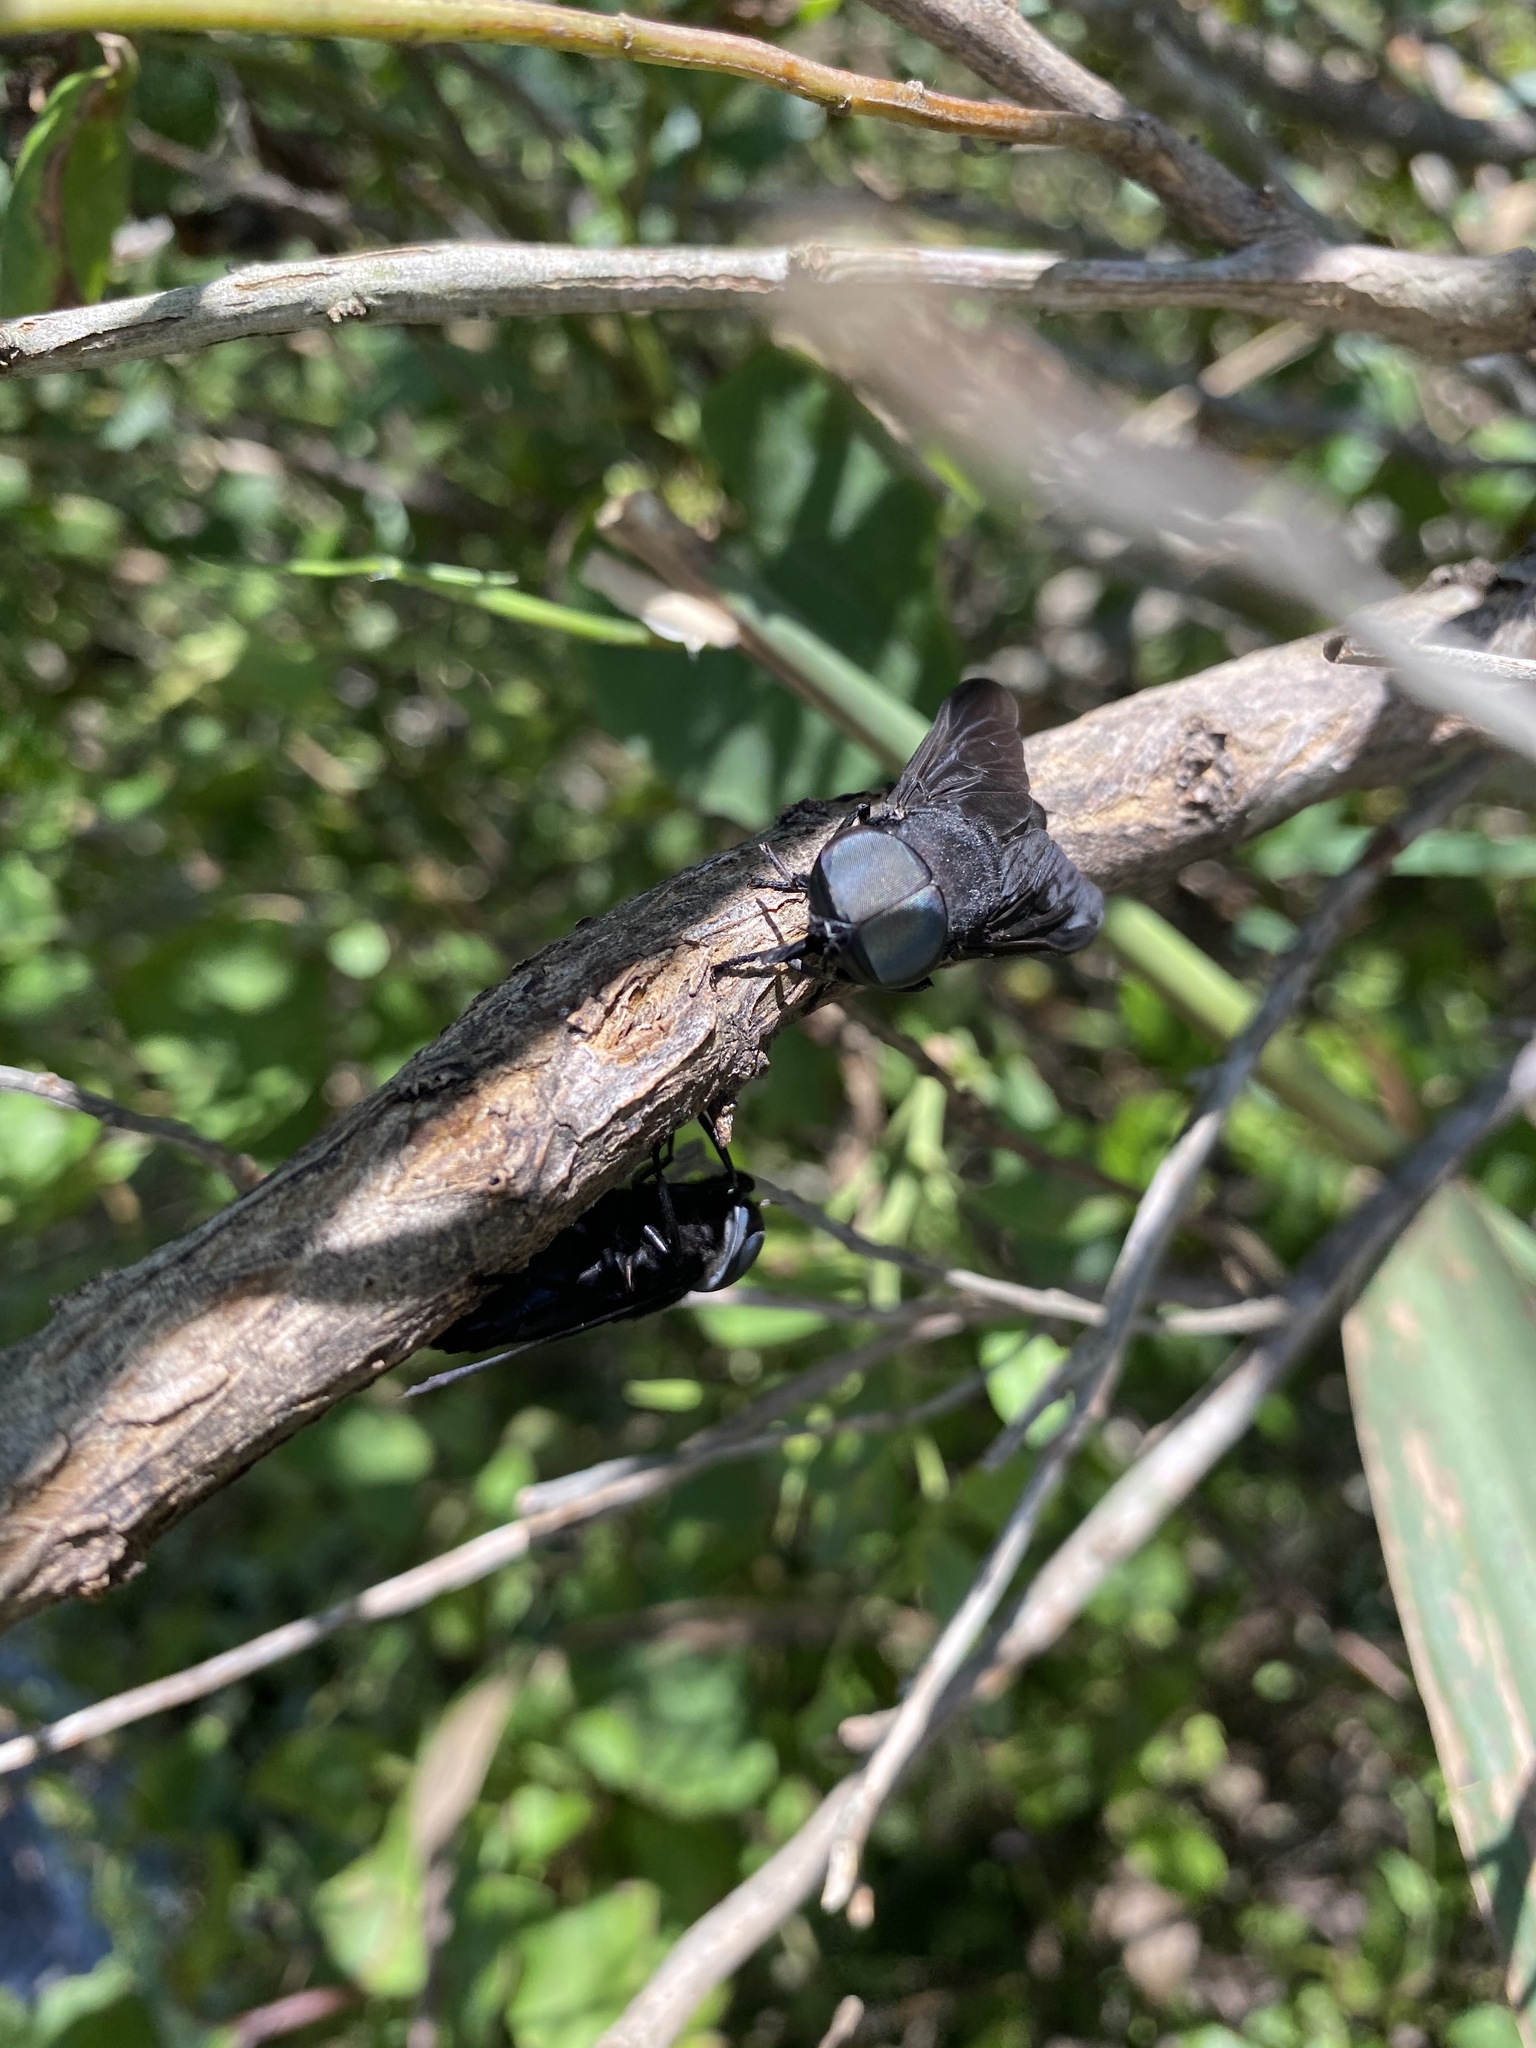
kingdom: Animalia
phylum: Arthropoda
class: Insecta
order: Diptera
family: Tabanidae
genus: Tabanus
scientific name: Tabanus atratus
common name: Black horse fly
